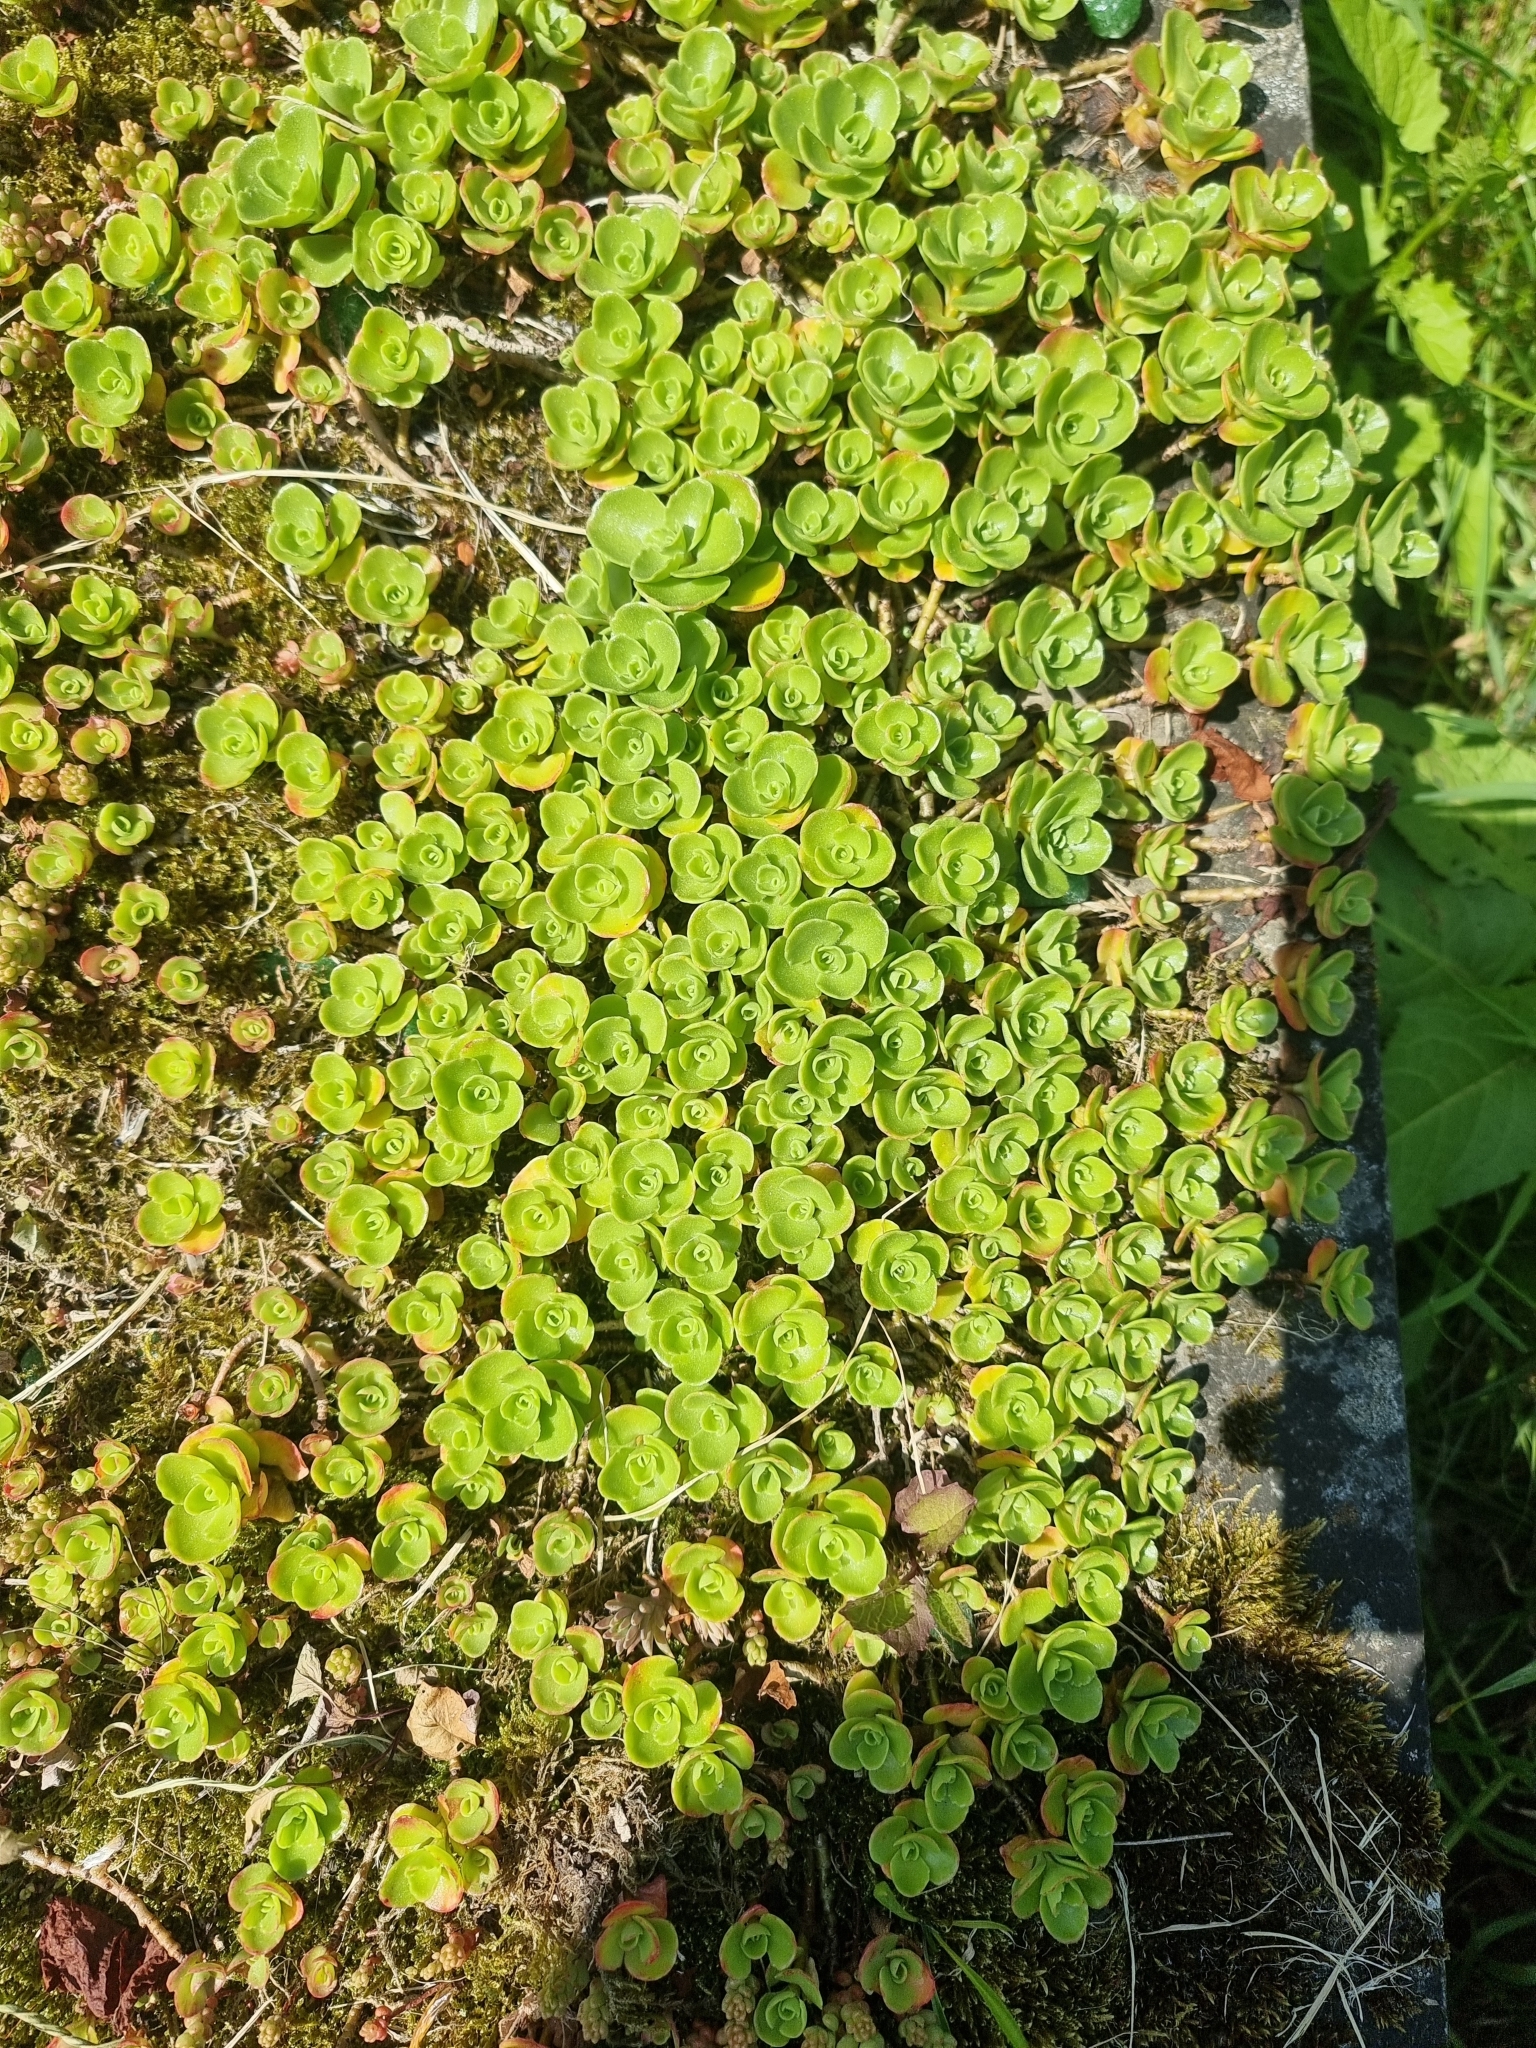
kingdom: Plantae
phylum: Tracheophyta
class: Magnoliopsida
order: Saxifragales
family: Crassulaceae
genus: Phedimus
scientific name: Phedimus spurius
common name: Caucasian stonecrop
